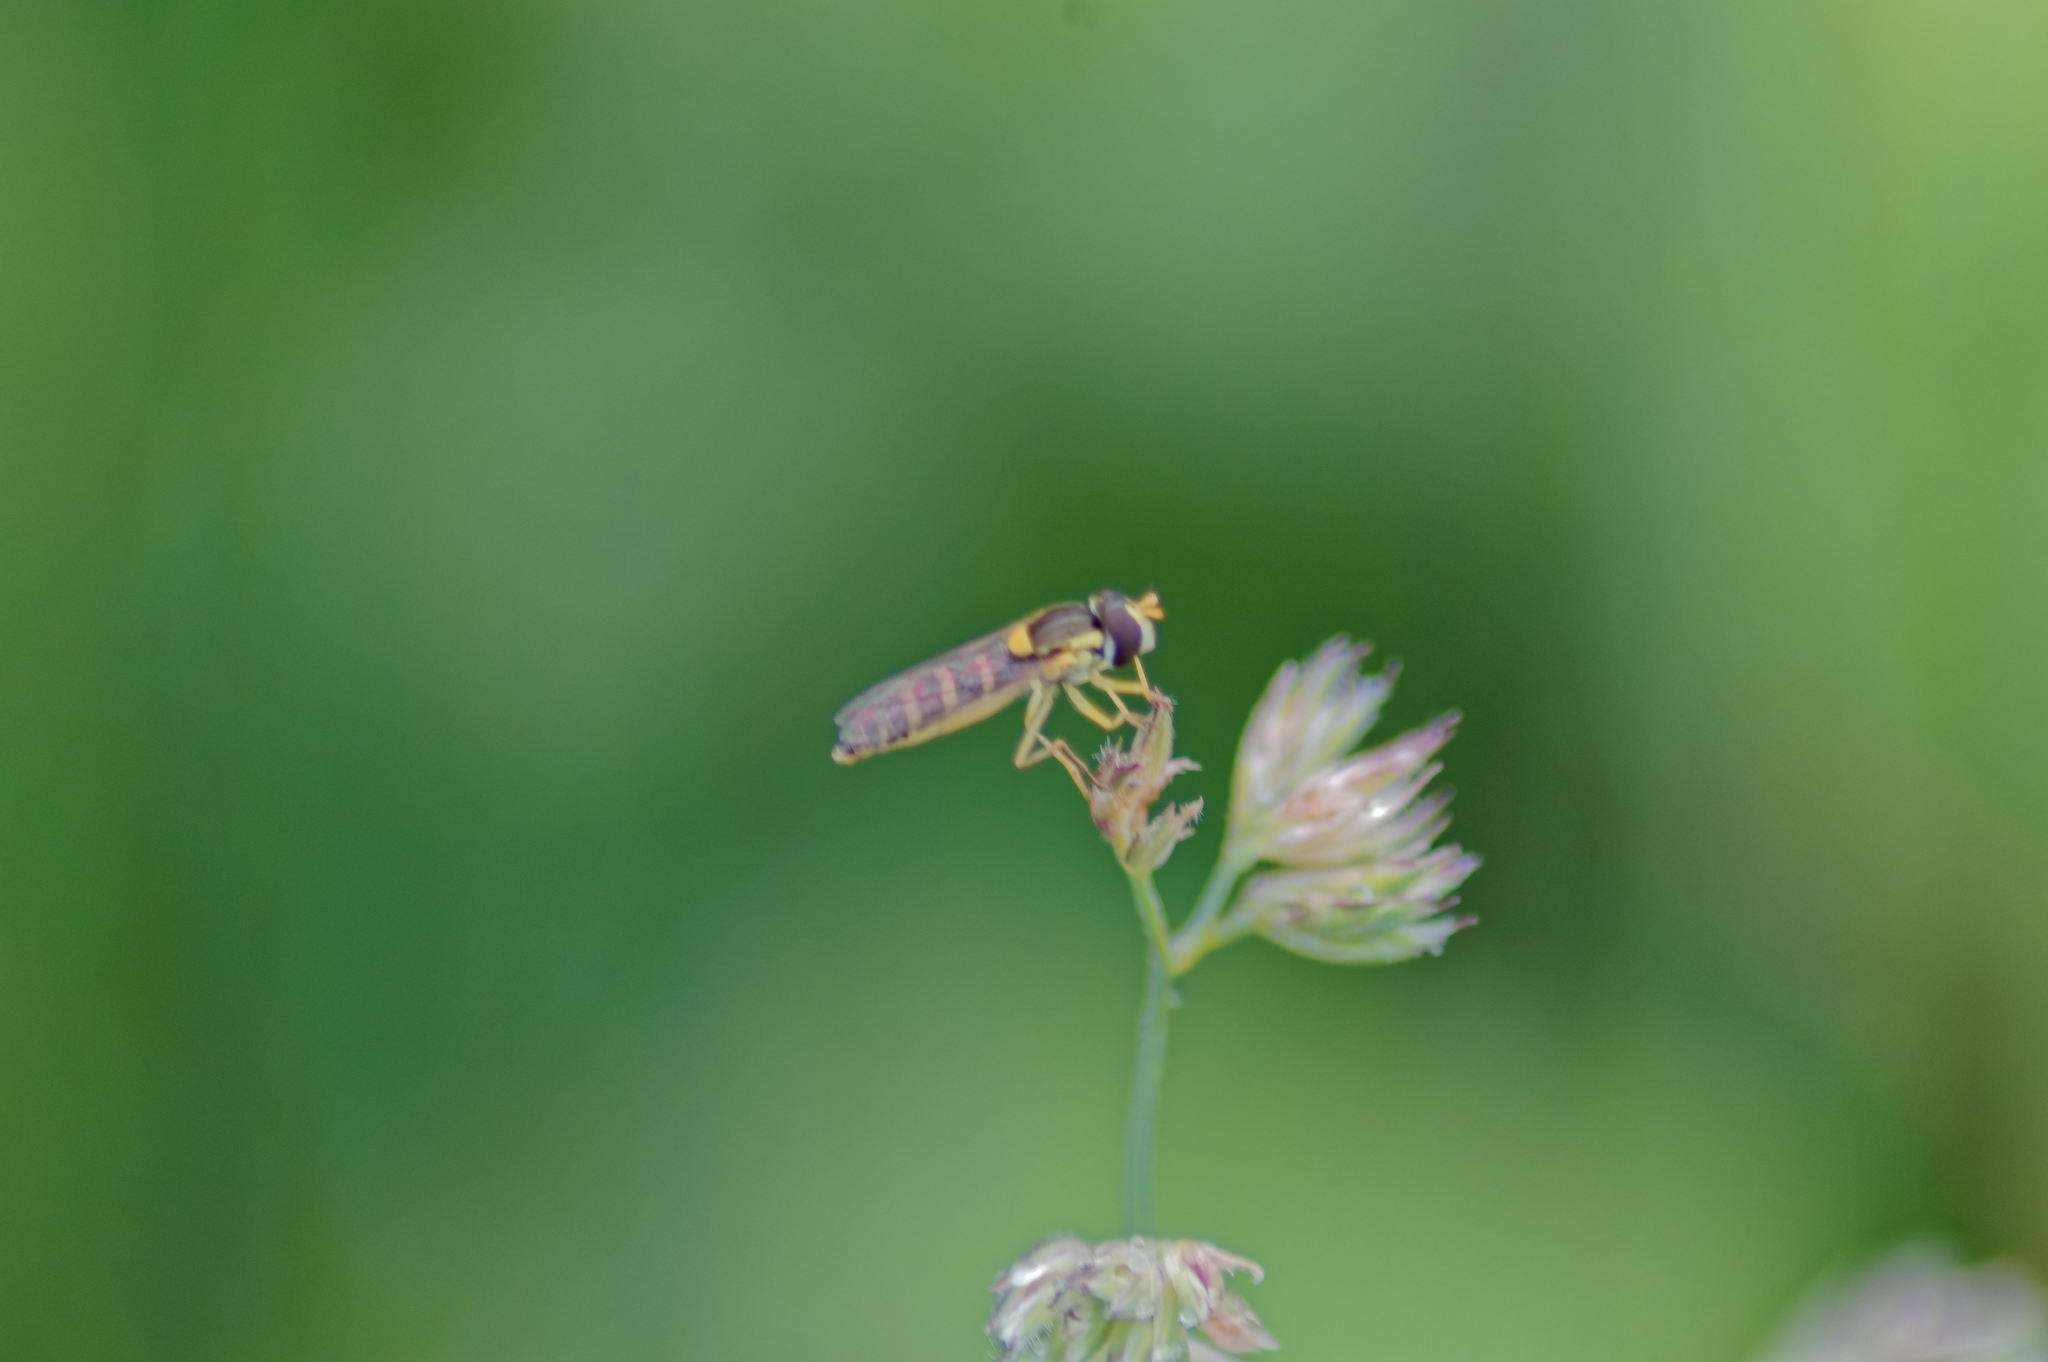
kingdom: Animalia
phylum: Arthropoda
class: Insecta
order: Diptera
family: Syrphidae
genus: Sphaerophoria
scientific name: Sphaerophoria
